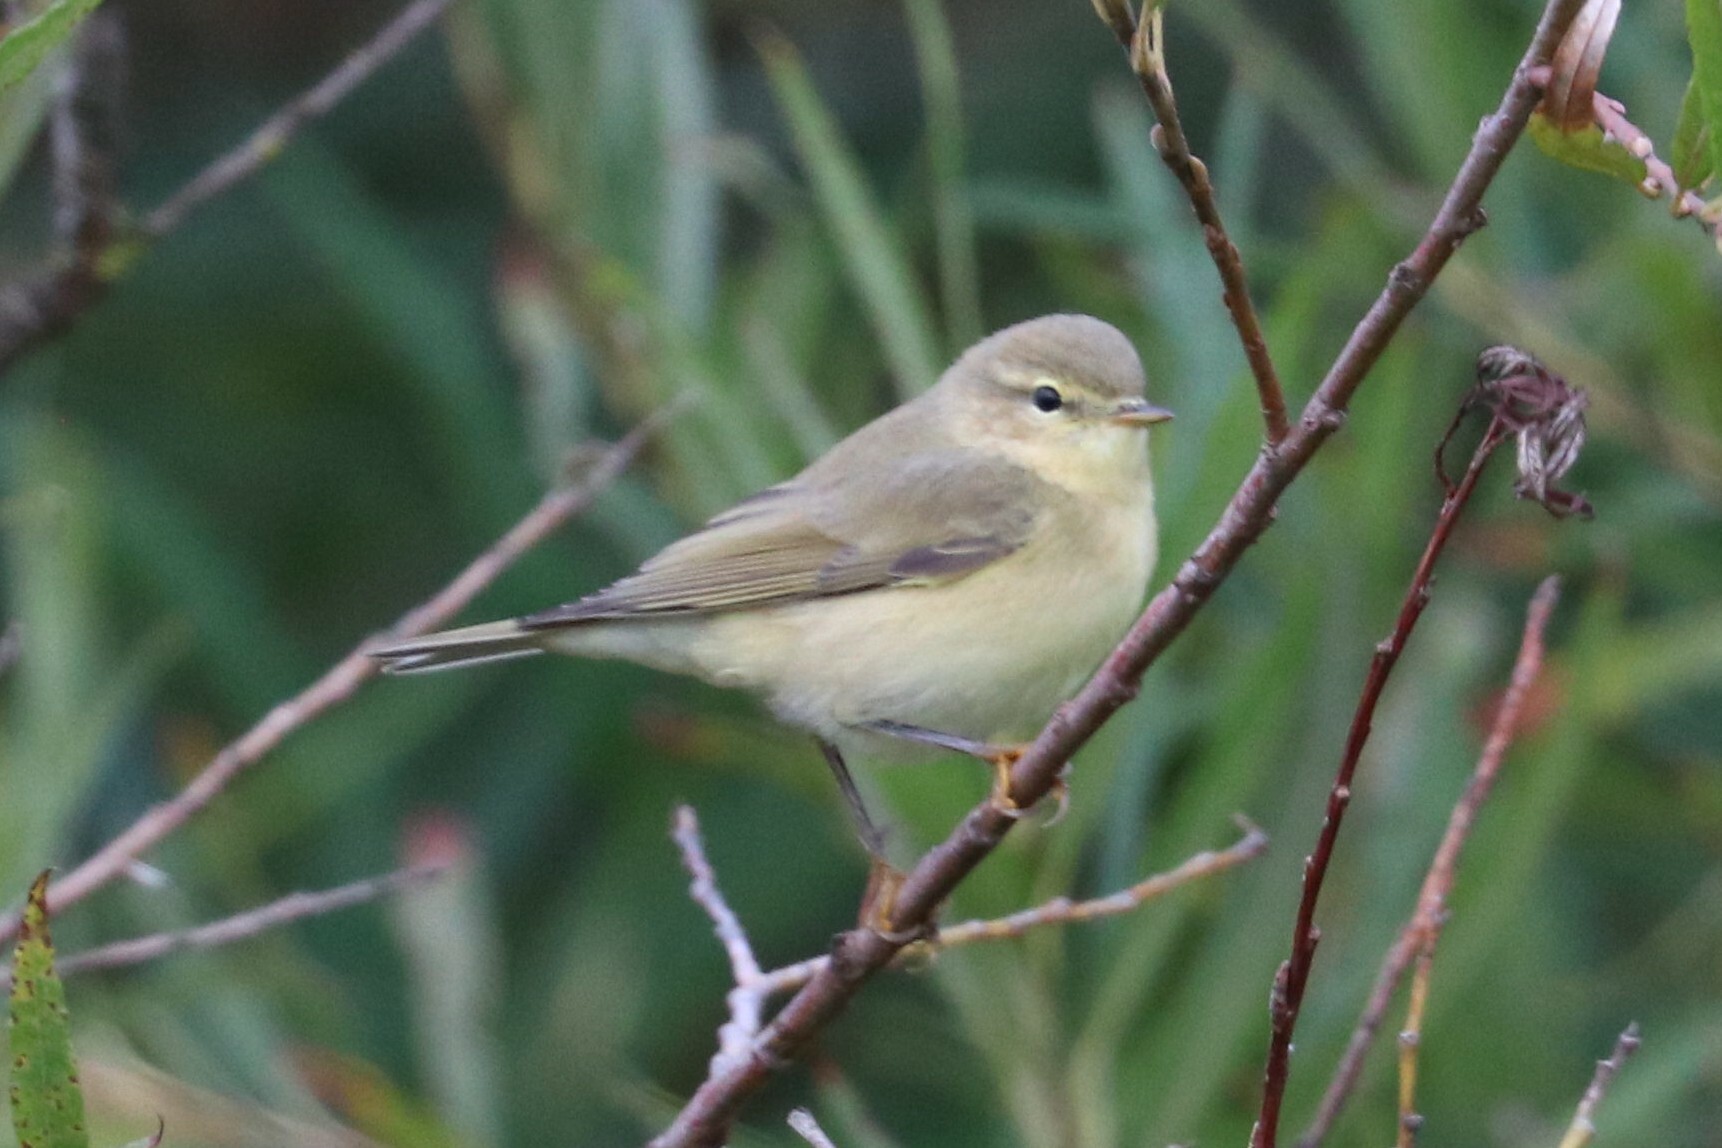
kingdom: Animalia
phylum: Chordata
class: Aves
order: Passeriformes
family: Phylloscopidae
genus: Phylloscopus
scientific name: Phylloscopus collybita
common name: Common chiffchaff
